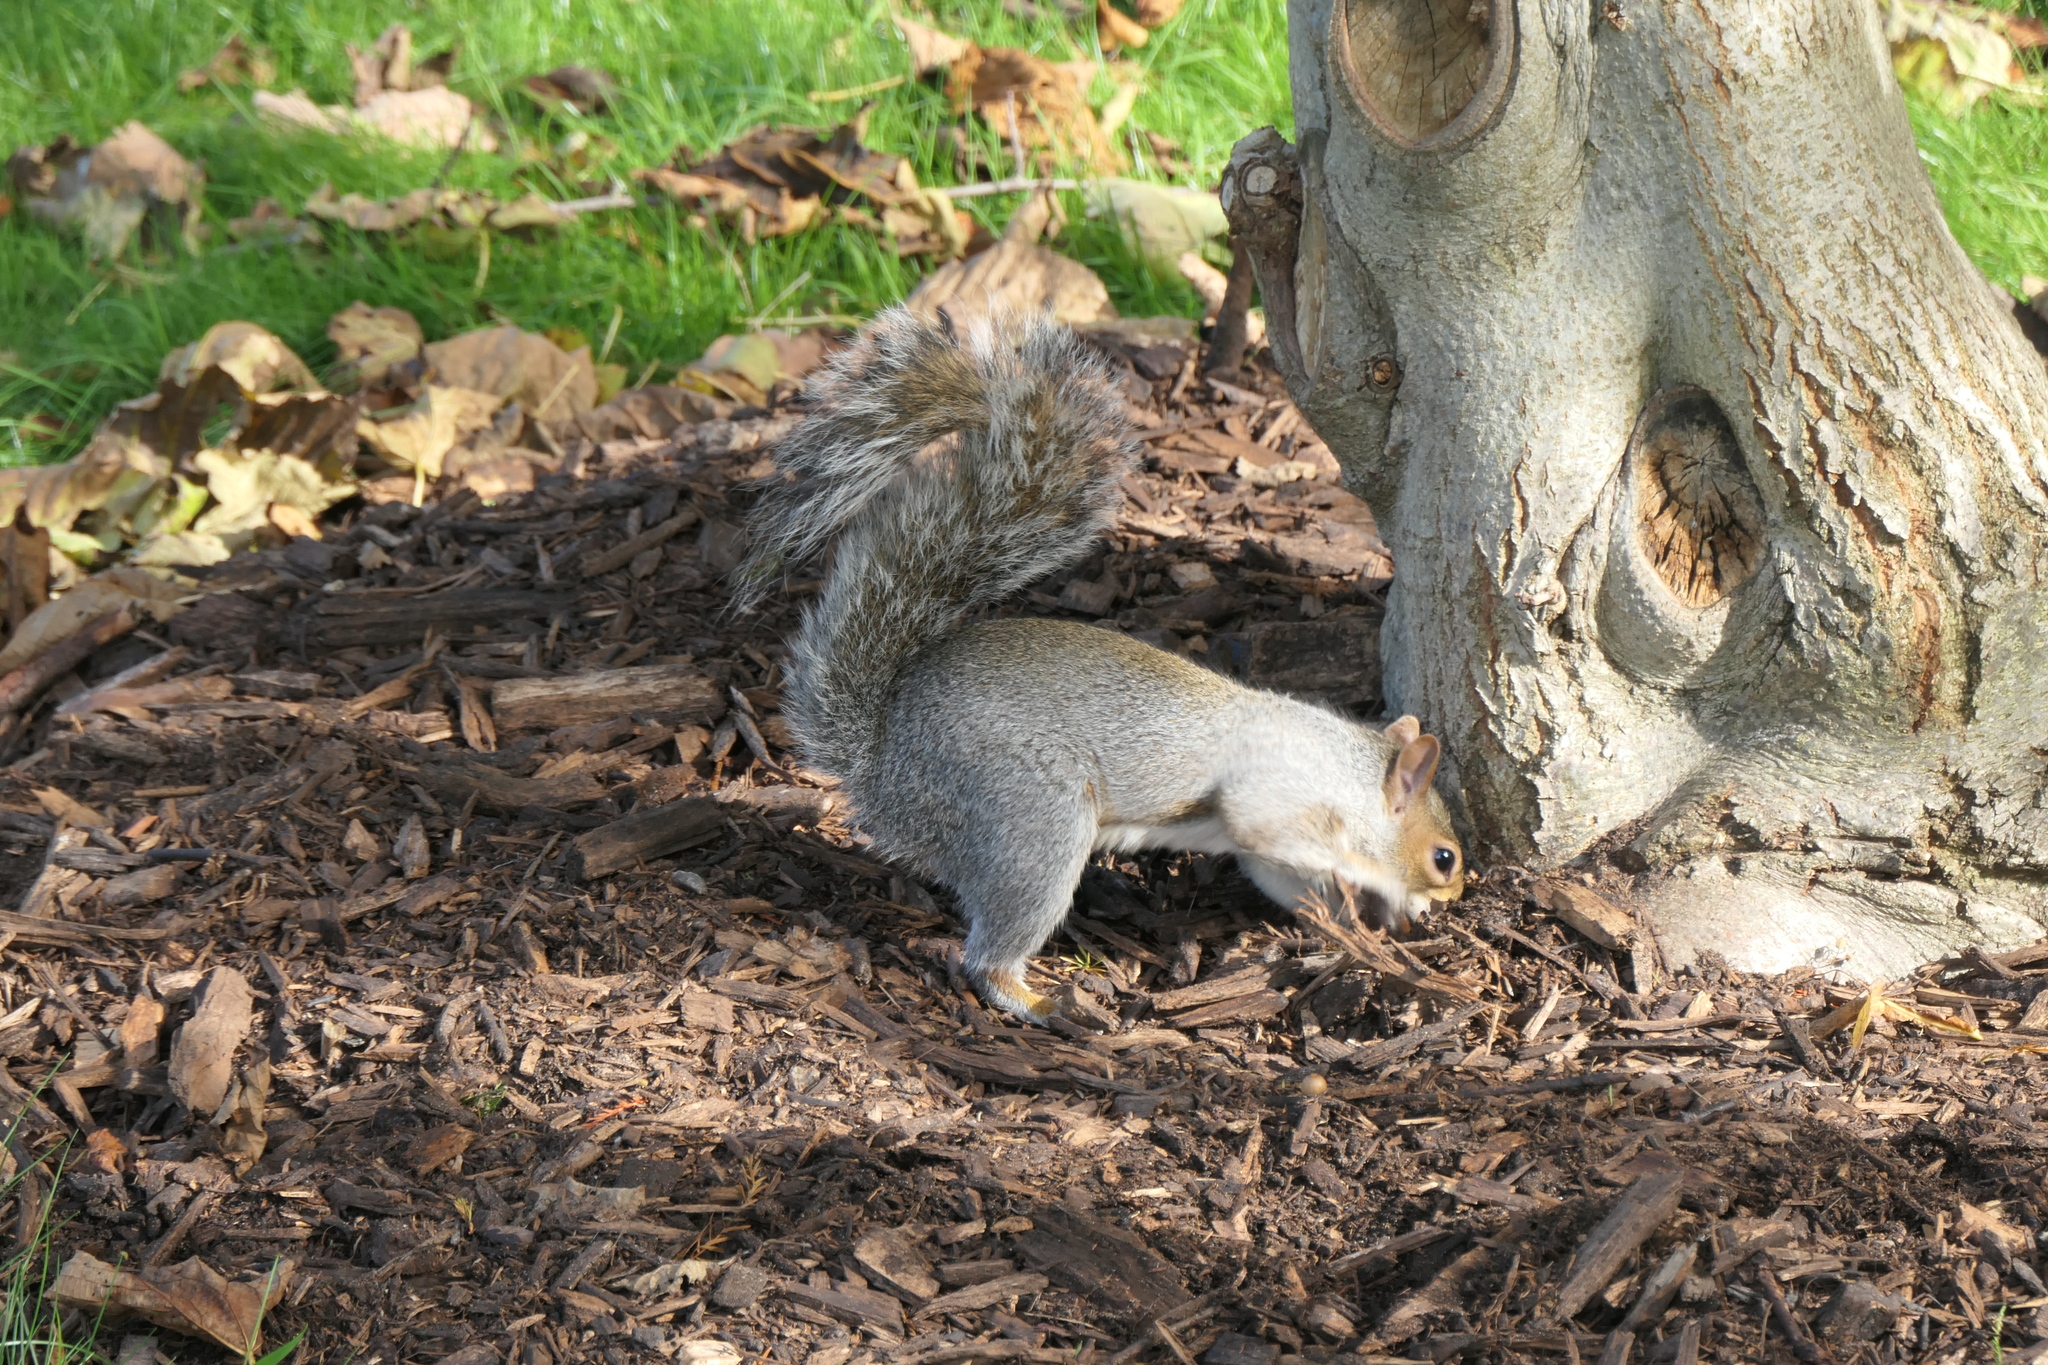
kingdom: Animalia
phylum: Chordata
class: Mammalia
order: Rodentia
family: Sciuridae
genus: Sciurus
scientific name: Sciurus carolinensis
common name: Eastern gray squirrel
